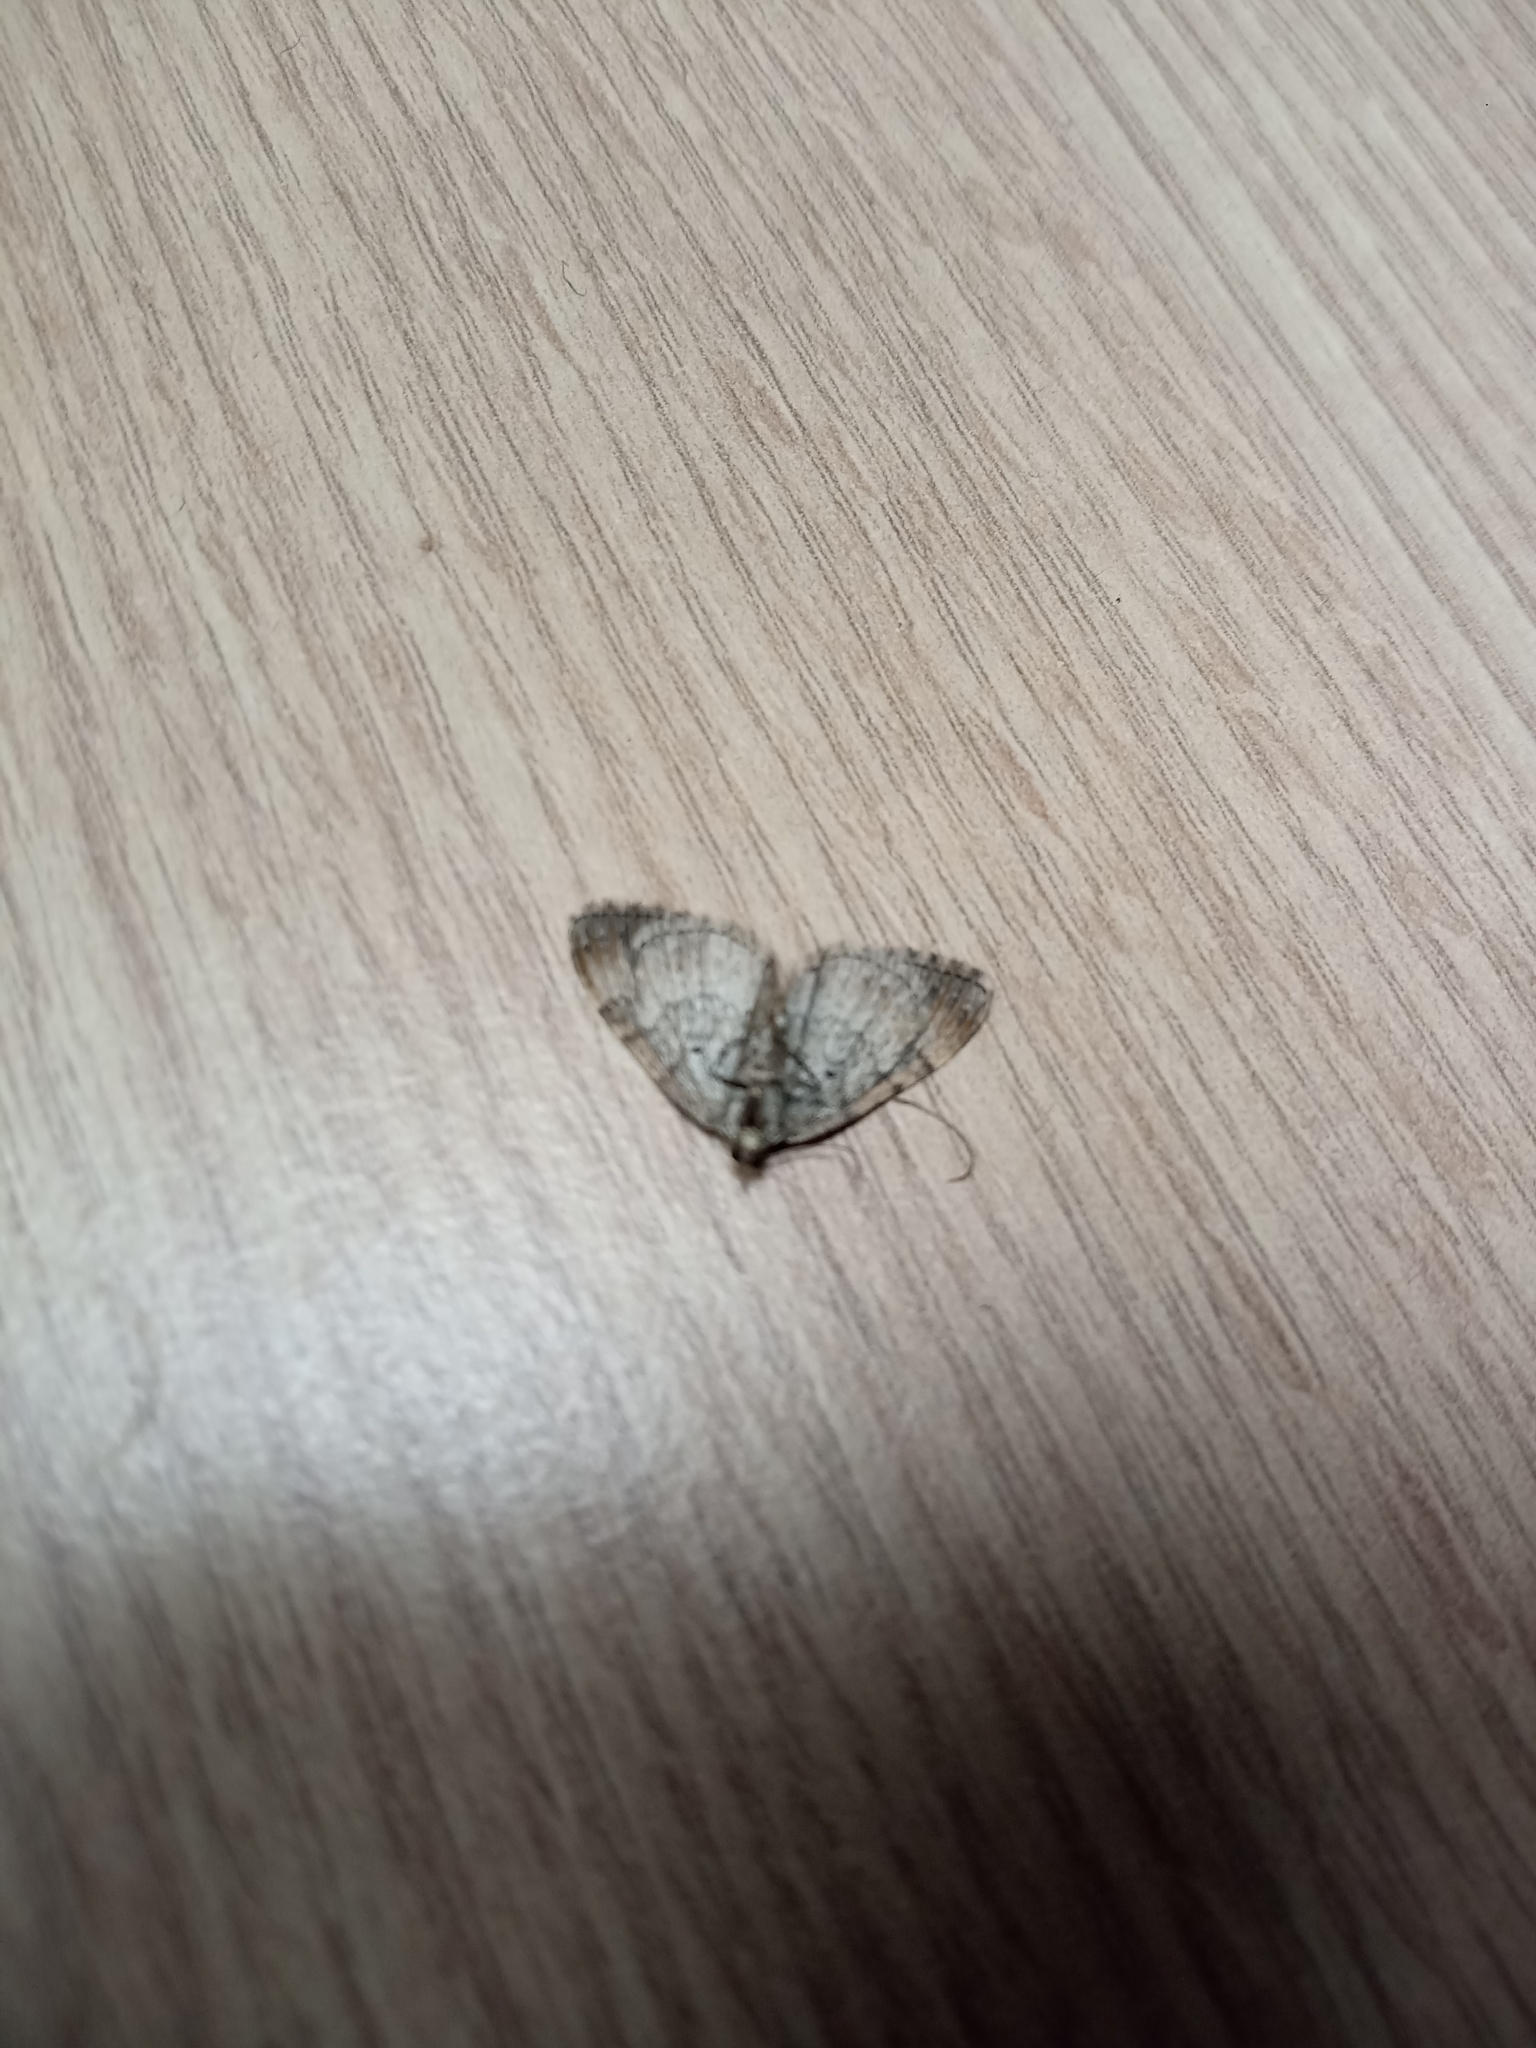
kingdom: Animalia
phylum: Arthropoda
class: Insecta
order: Lepidoptera
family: Geometridae
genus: Xanthorhoe
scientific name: Xanthorhoe ferrugata
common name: Dark-barred twin-spot carpet
